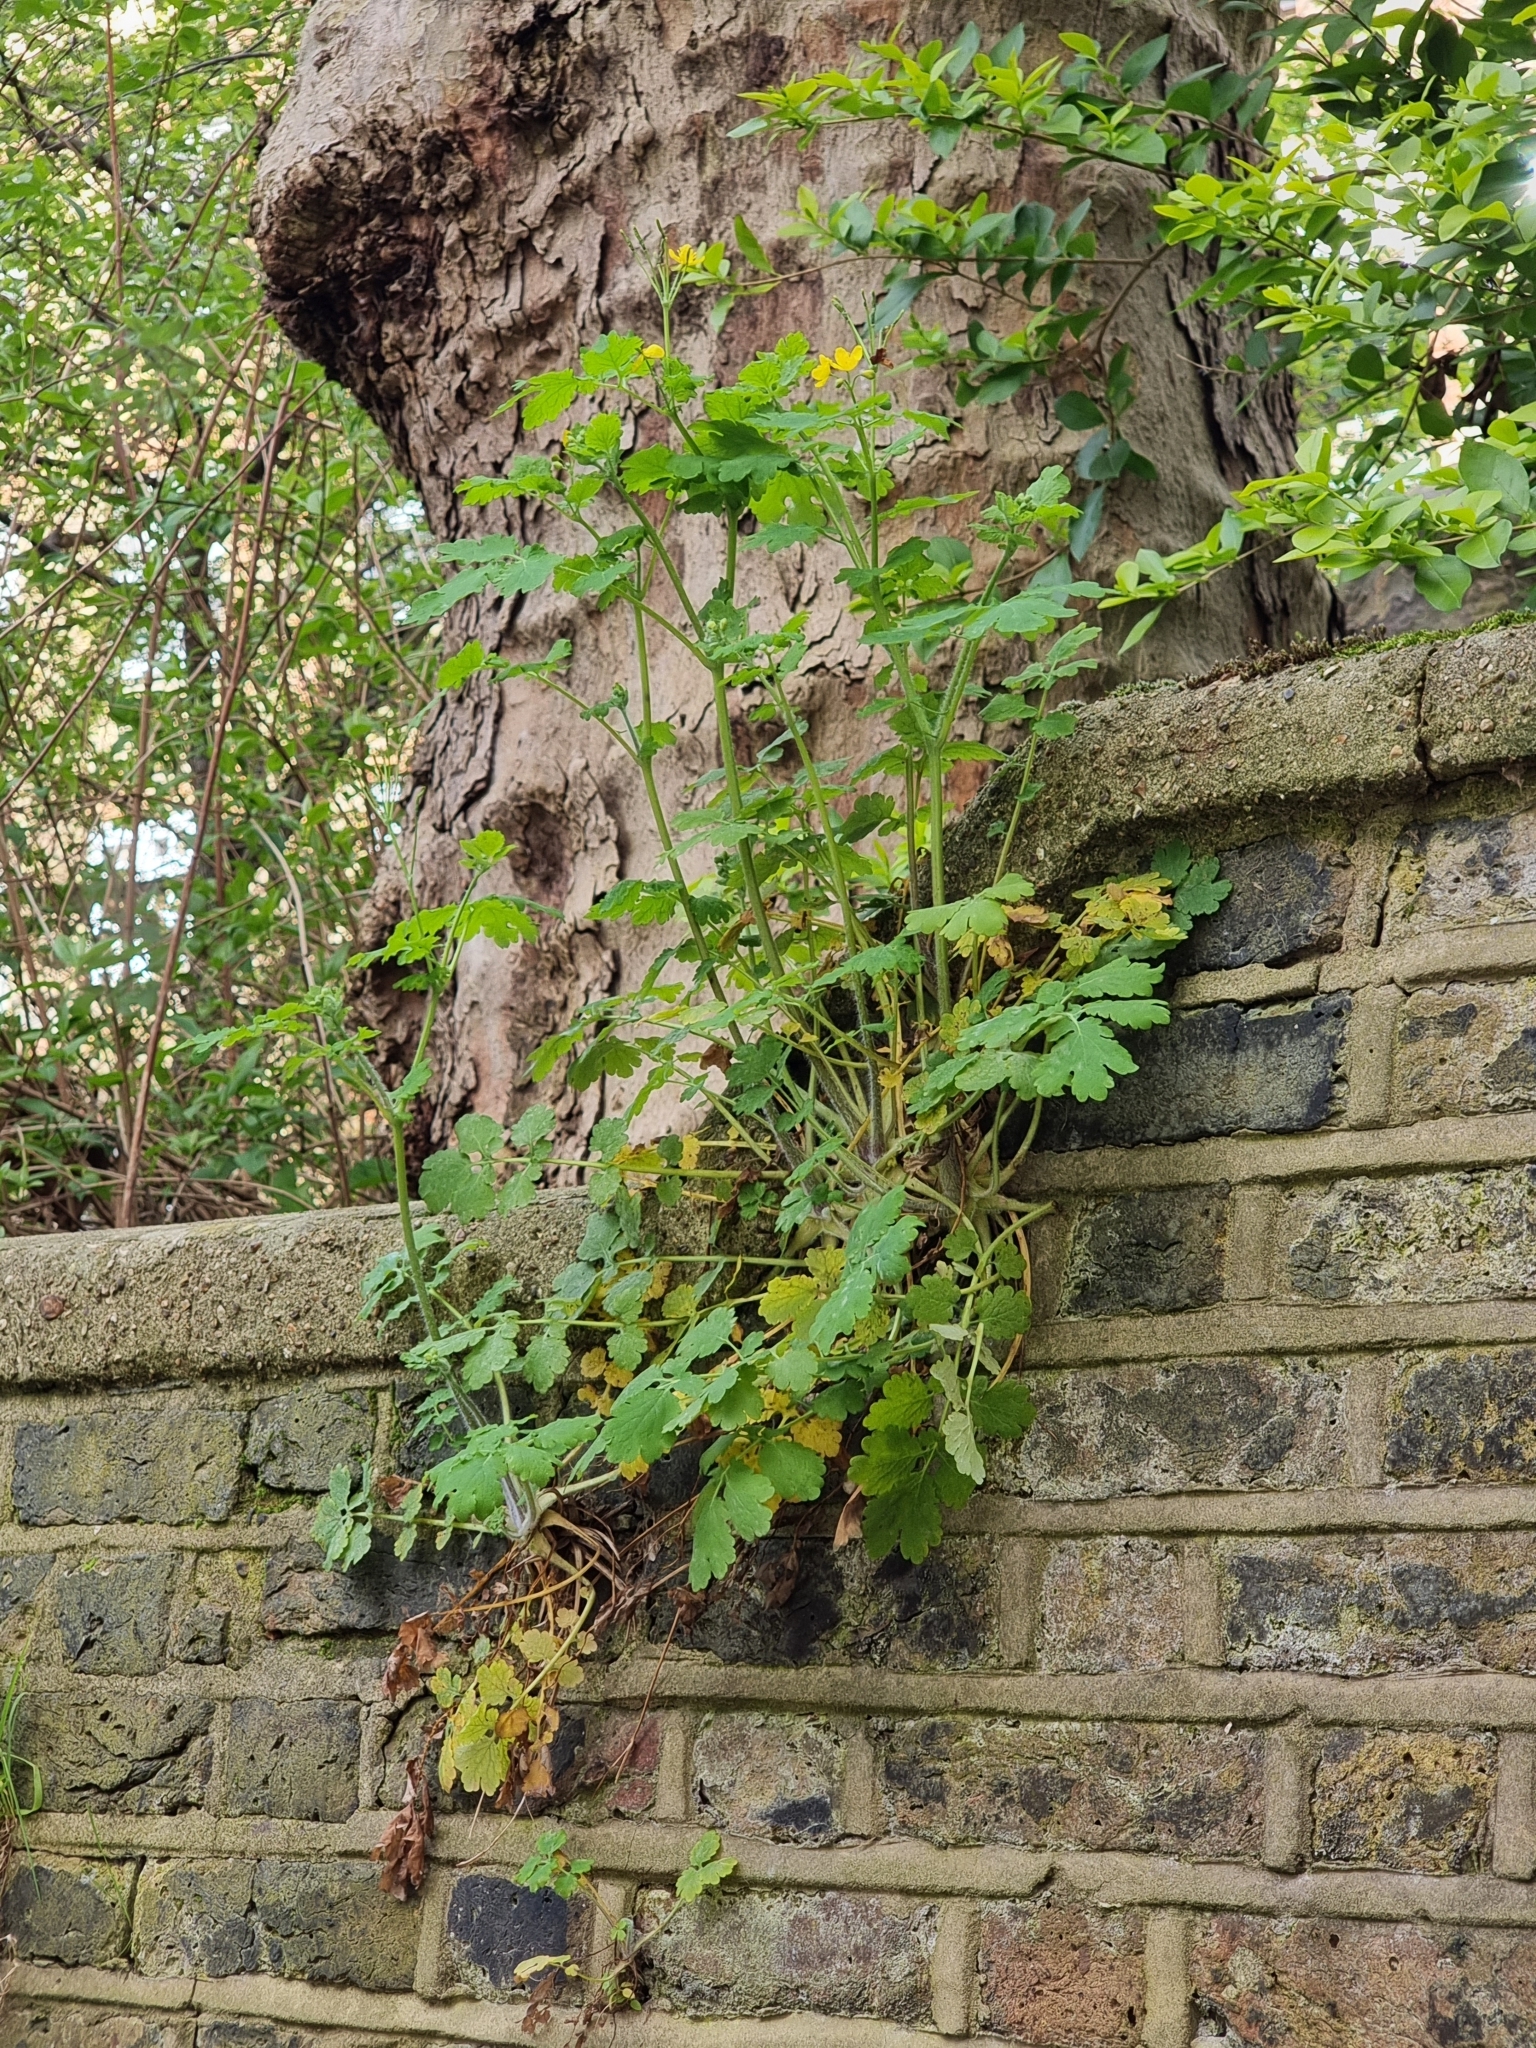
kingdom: Plantae
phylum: Tracheophyta
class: Magnoliopsida
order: Ranunculales
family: Papaveraceae
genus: Chelidonium
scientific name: Chelidonium majus
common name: Greater celandine
